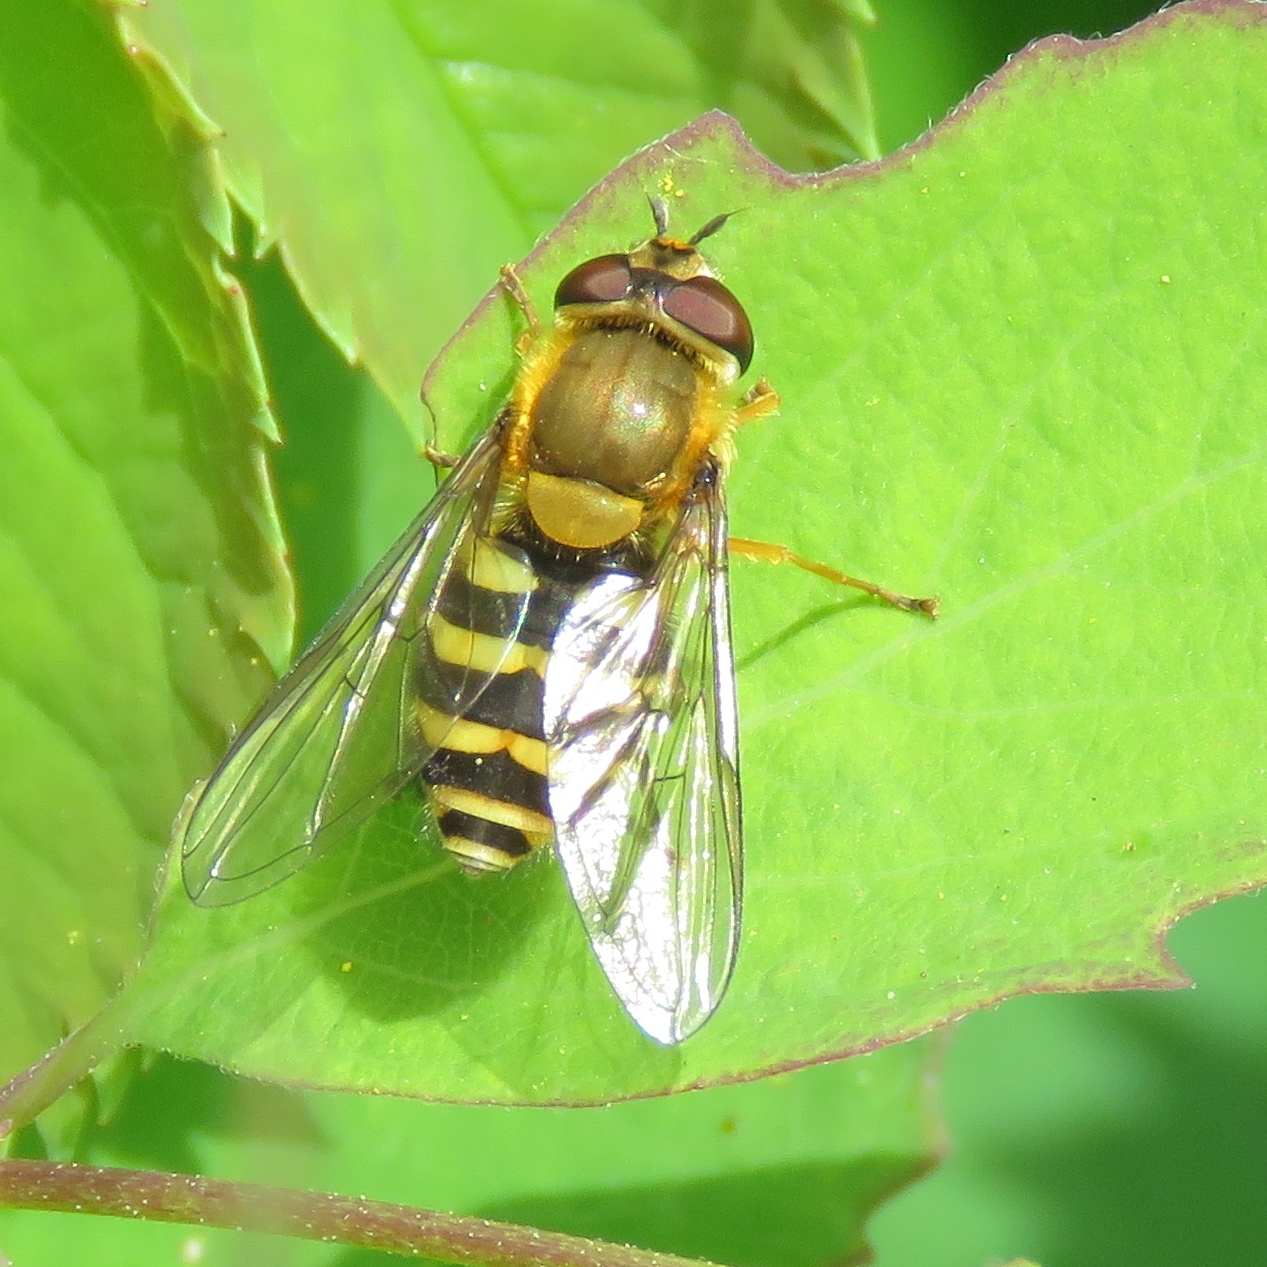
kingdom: Animalia
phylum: Arthropoda
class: Insecta
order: Diptera
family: Syrphidae
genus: Syrphus
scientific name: Syrphus
